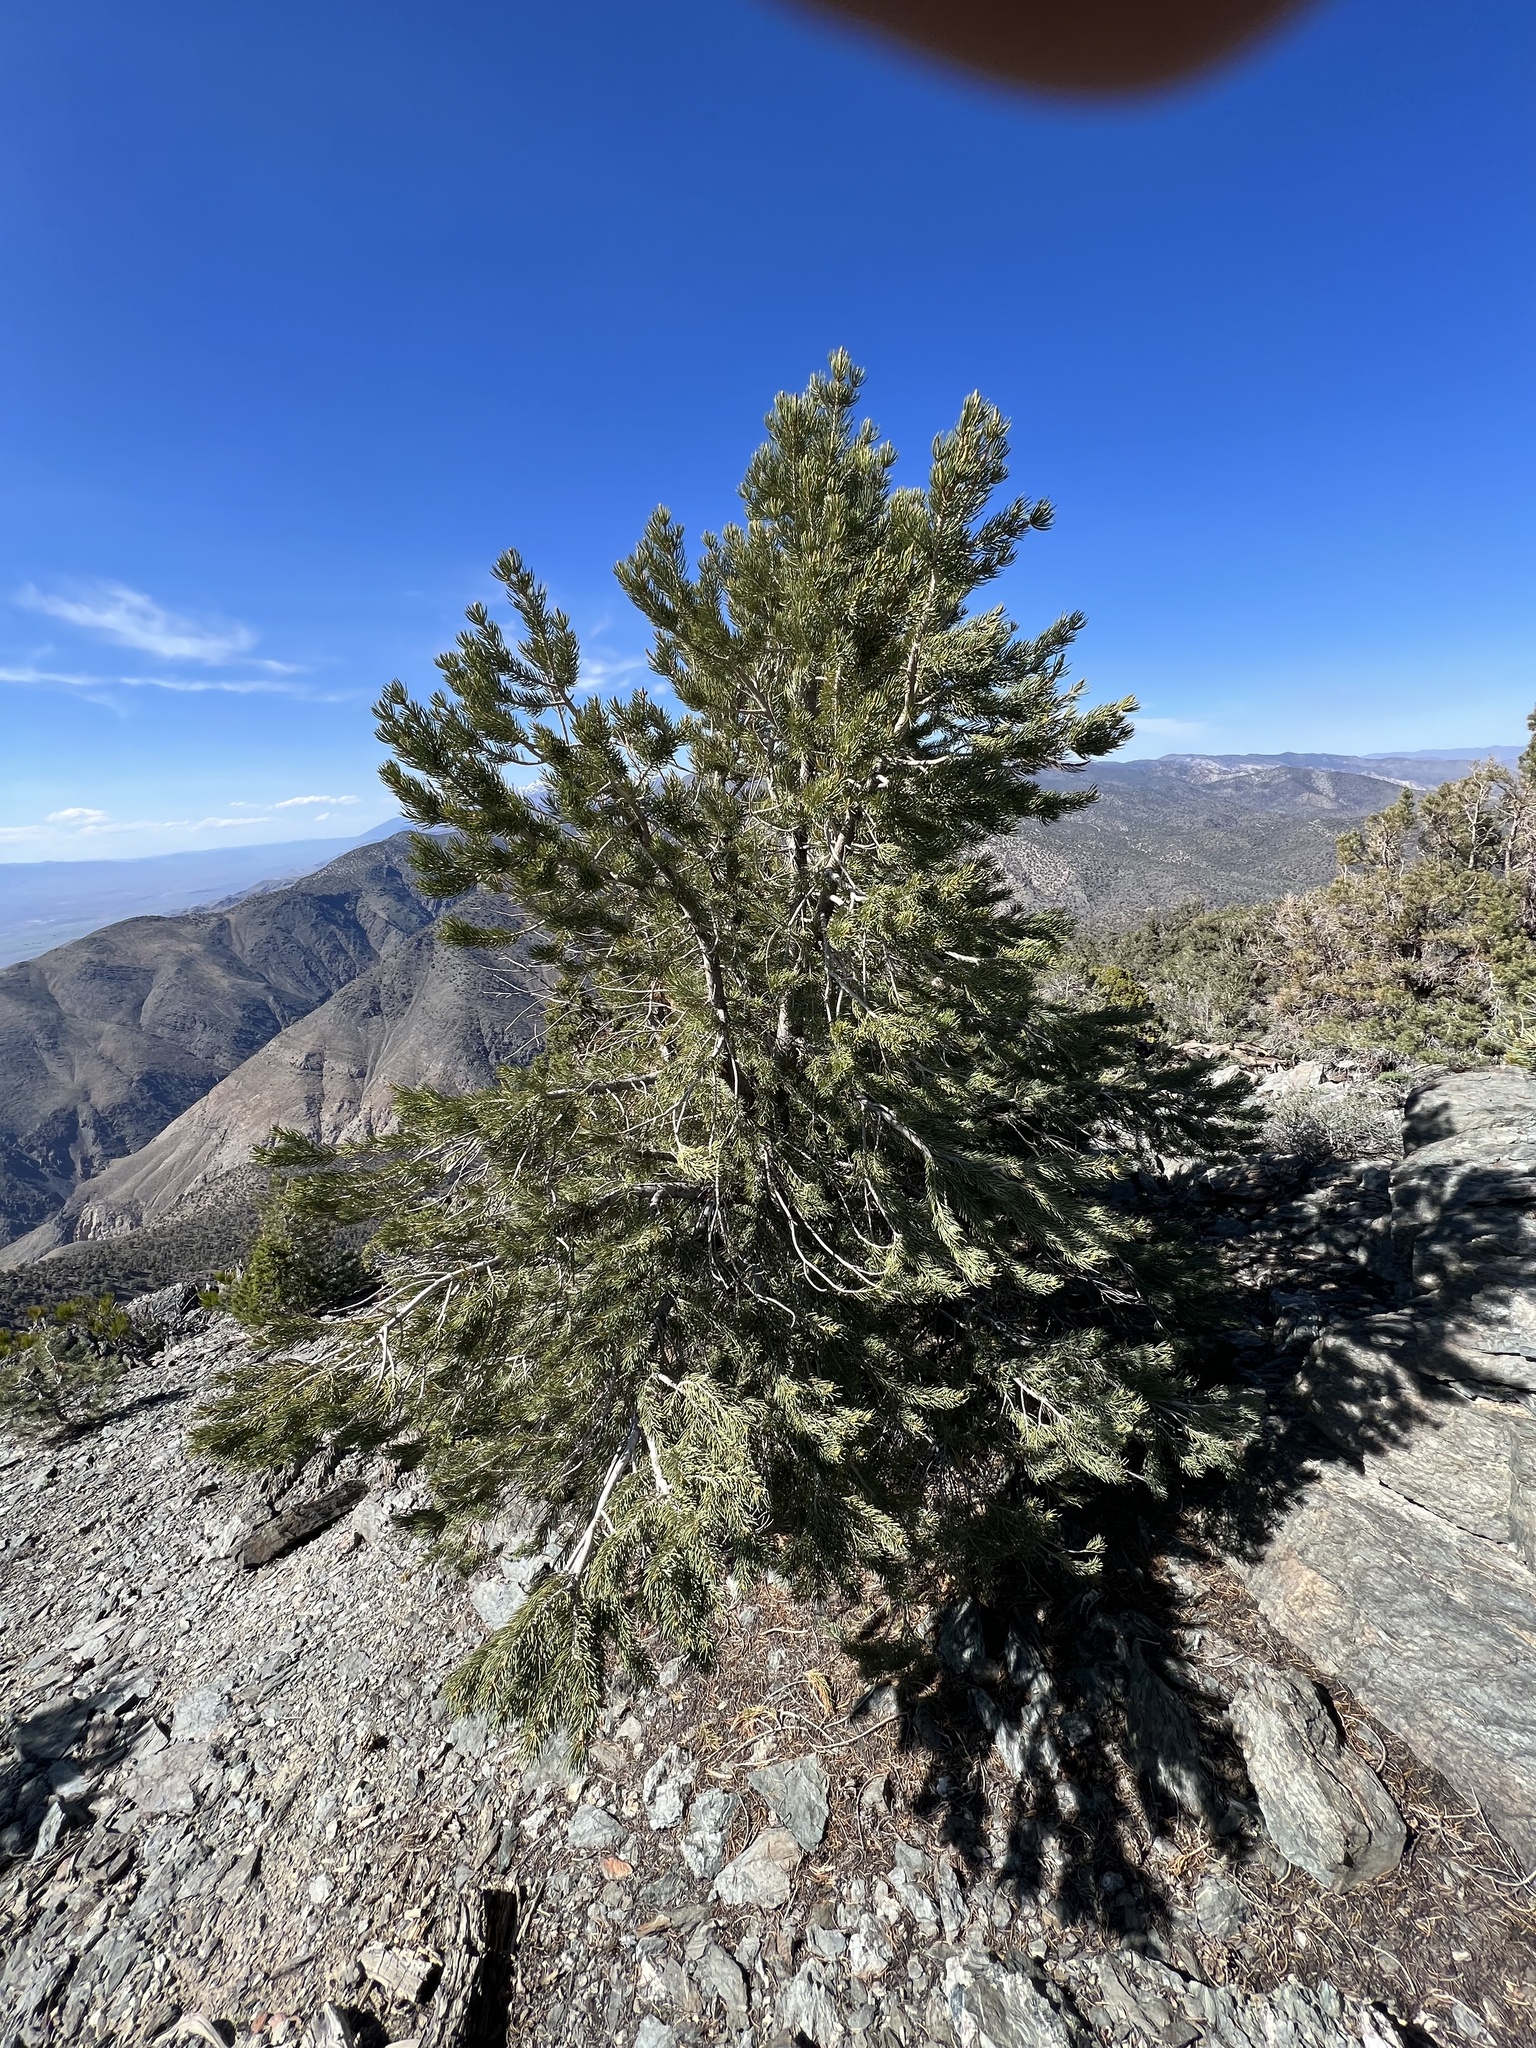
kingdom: Plantae
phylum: Tracheophyta
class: Pinopsida
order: Pinales
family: Pinaceae
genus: Pinus
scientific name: Pinus monophylla
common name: One-leaved nut pine
